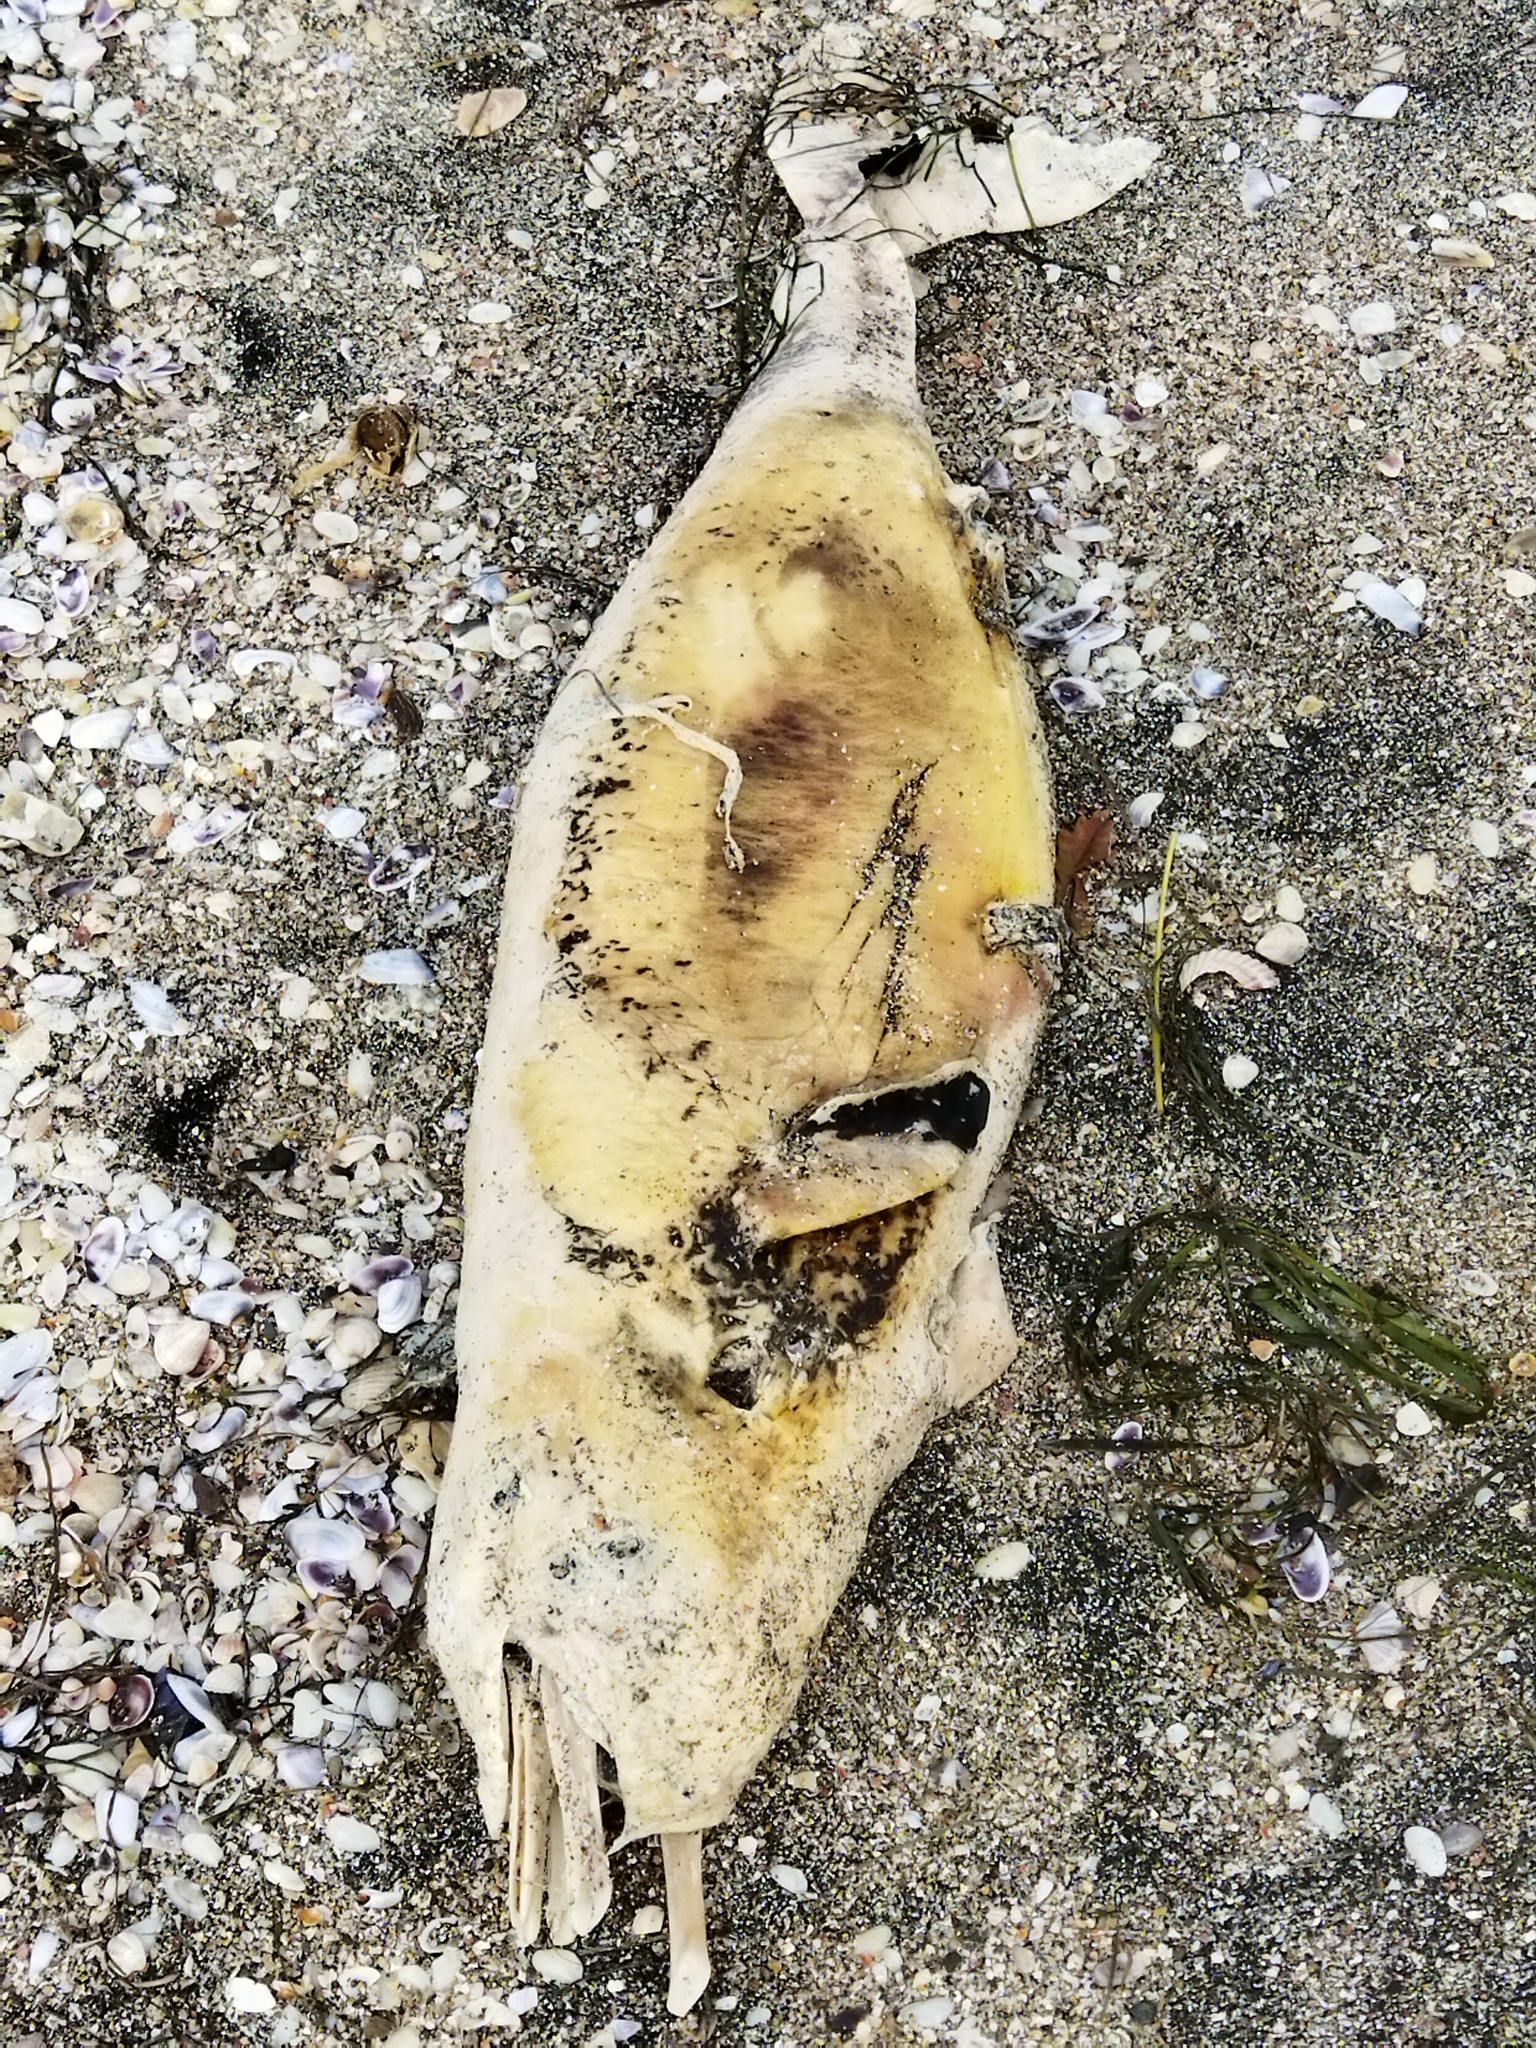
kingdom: Animalia
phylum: Chordata
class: Mammalia
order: Cetacea
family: Phocoenidae
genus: Phocoena
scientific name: Phocoena phocoena
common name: Harbor porpoise
